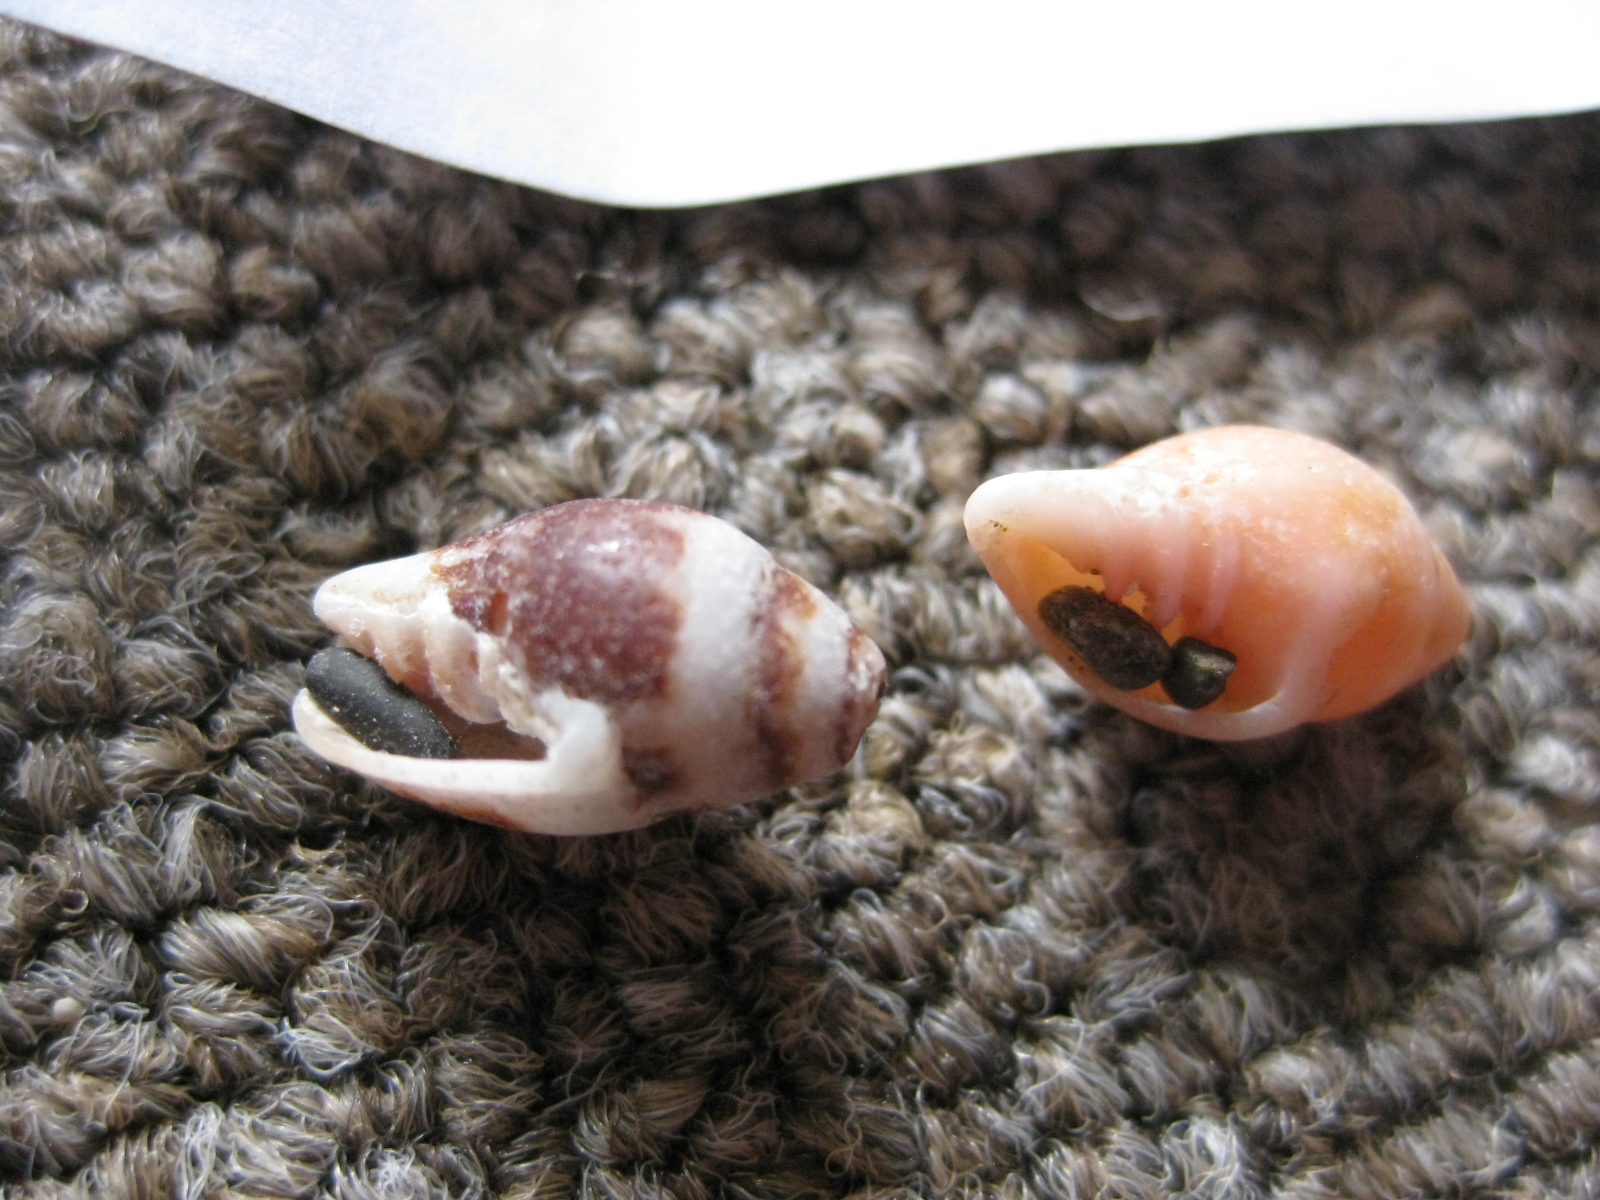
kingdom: Animalia
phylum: Mollusca
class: Gastropoda
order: Neogastropoda
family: Volutomitridae
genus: Volutomitra
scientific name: Volutomitra obscura
